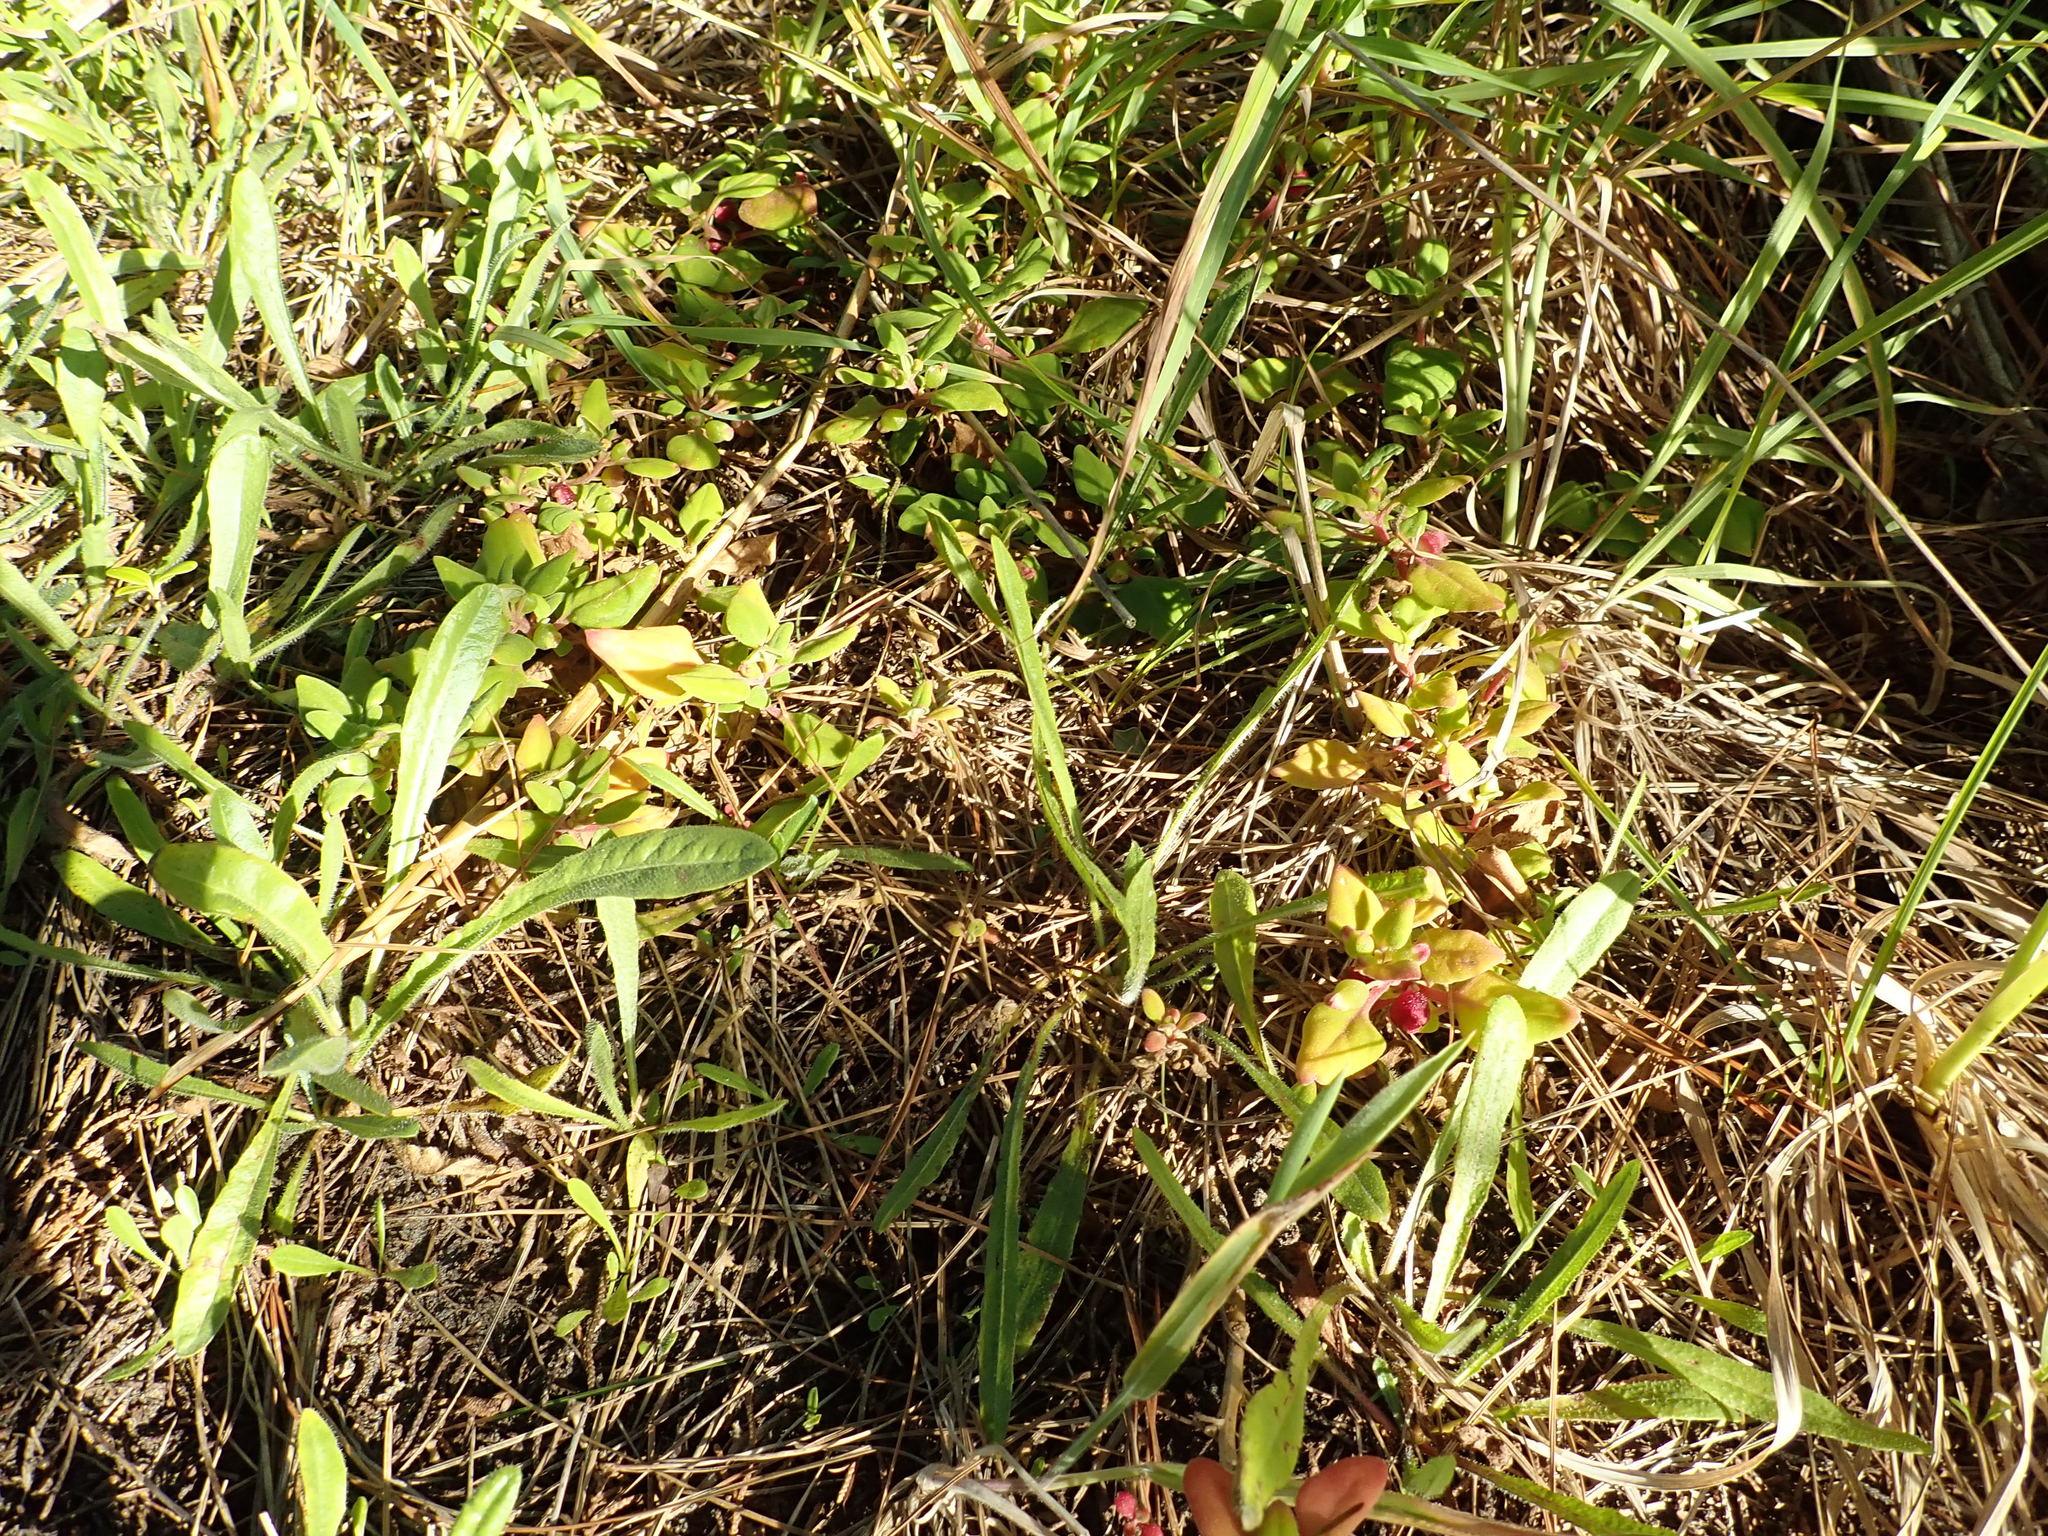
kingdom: Plantae
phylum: Tracheophyta
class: Magnoliopsida
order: Caryophyllales
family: Aizoaceae
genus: Tetragonia
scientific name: Tetragonia implexicoma
